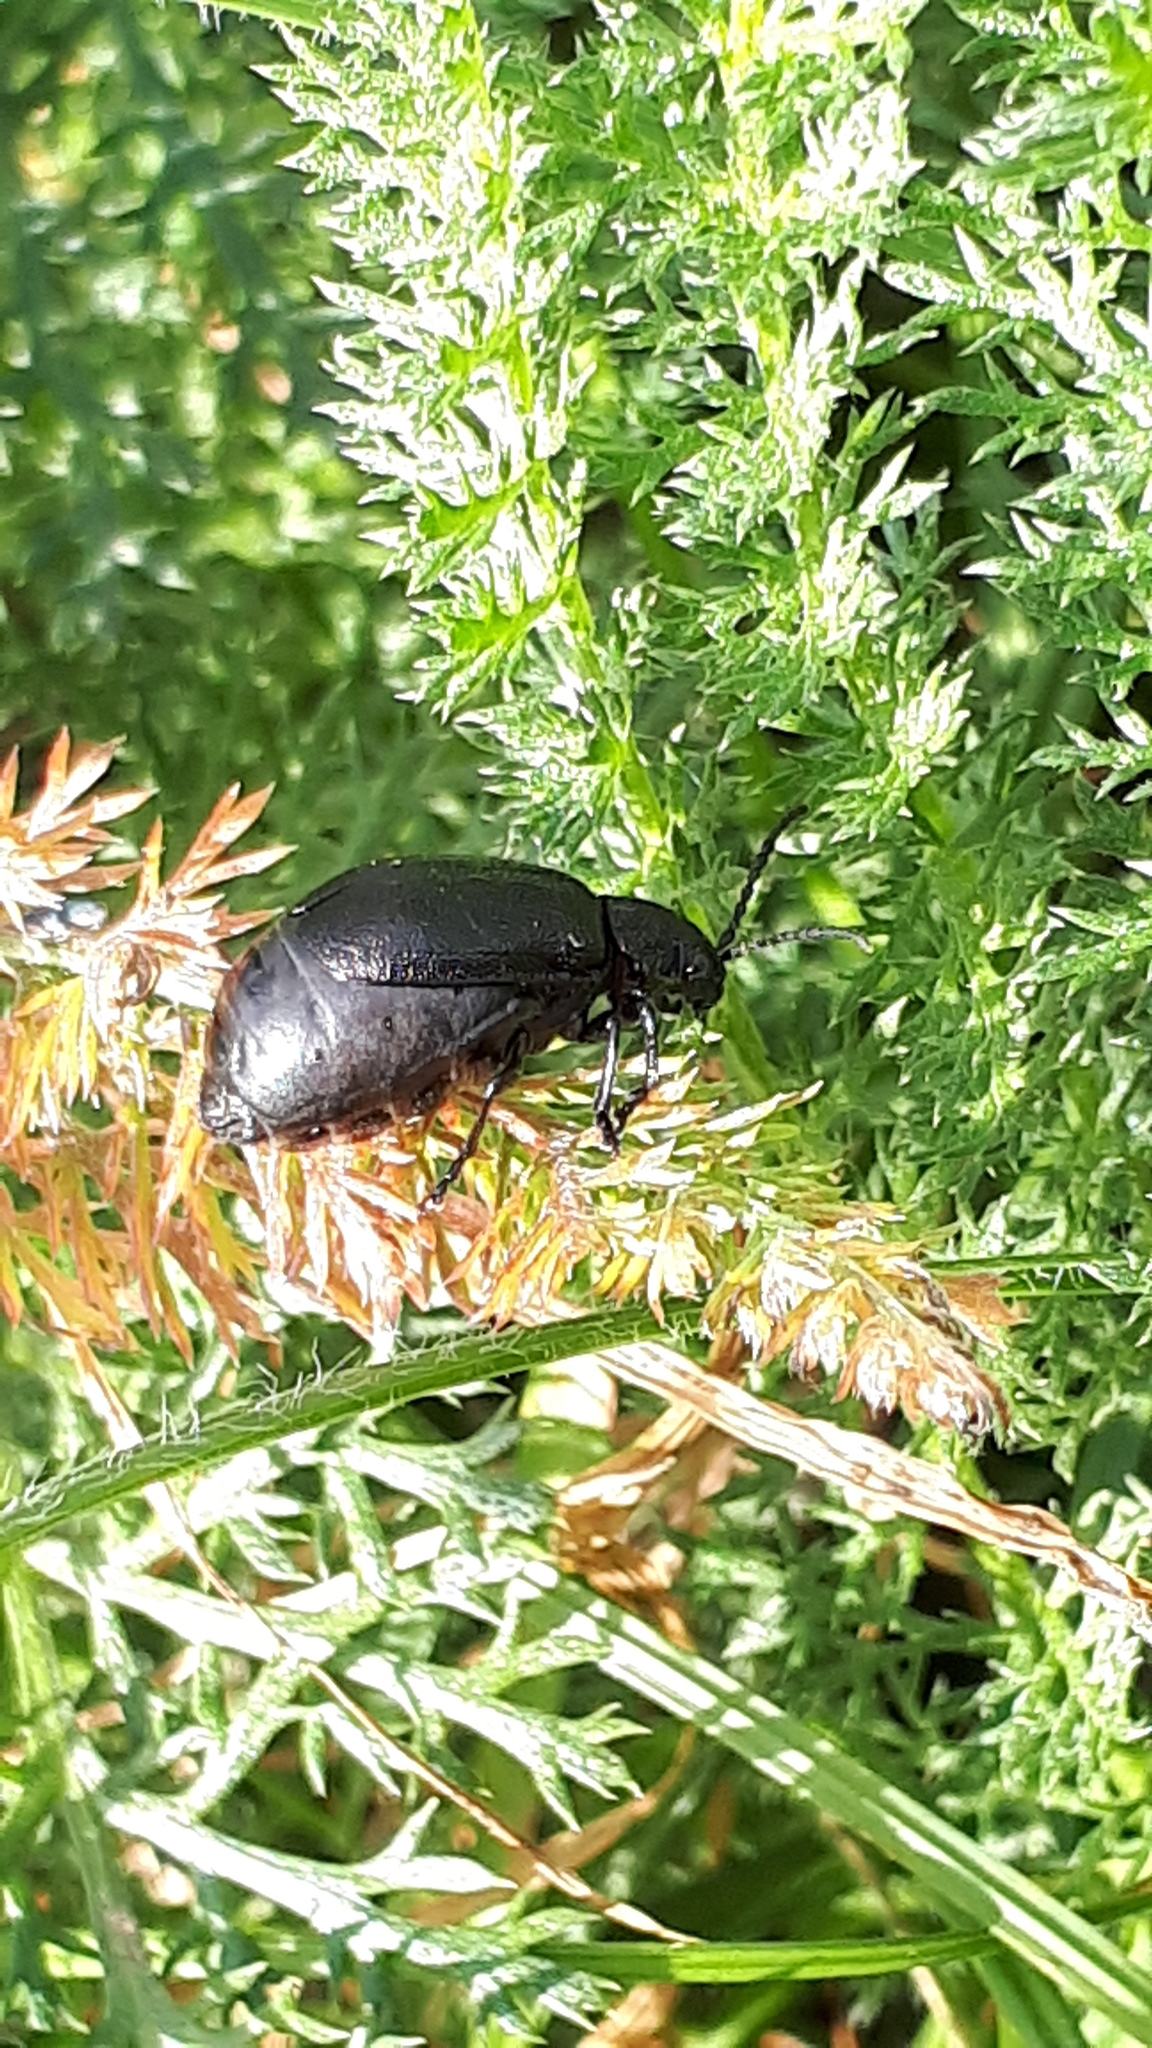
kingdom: Animalia
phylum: Arthropoda
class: Insecta
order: Coleoptera
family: Chrysomelidae
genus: Galeruca
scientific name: Galeruca tanaceti
